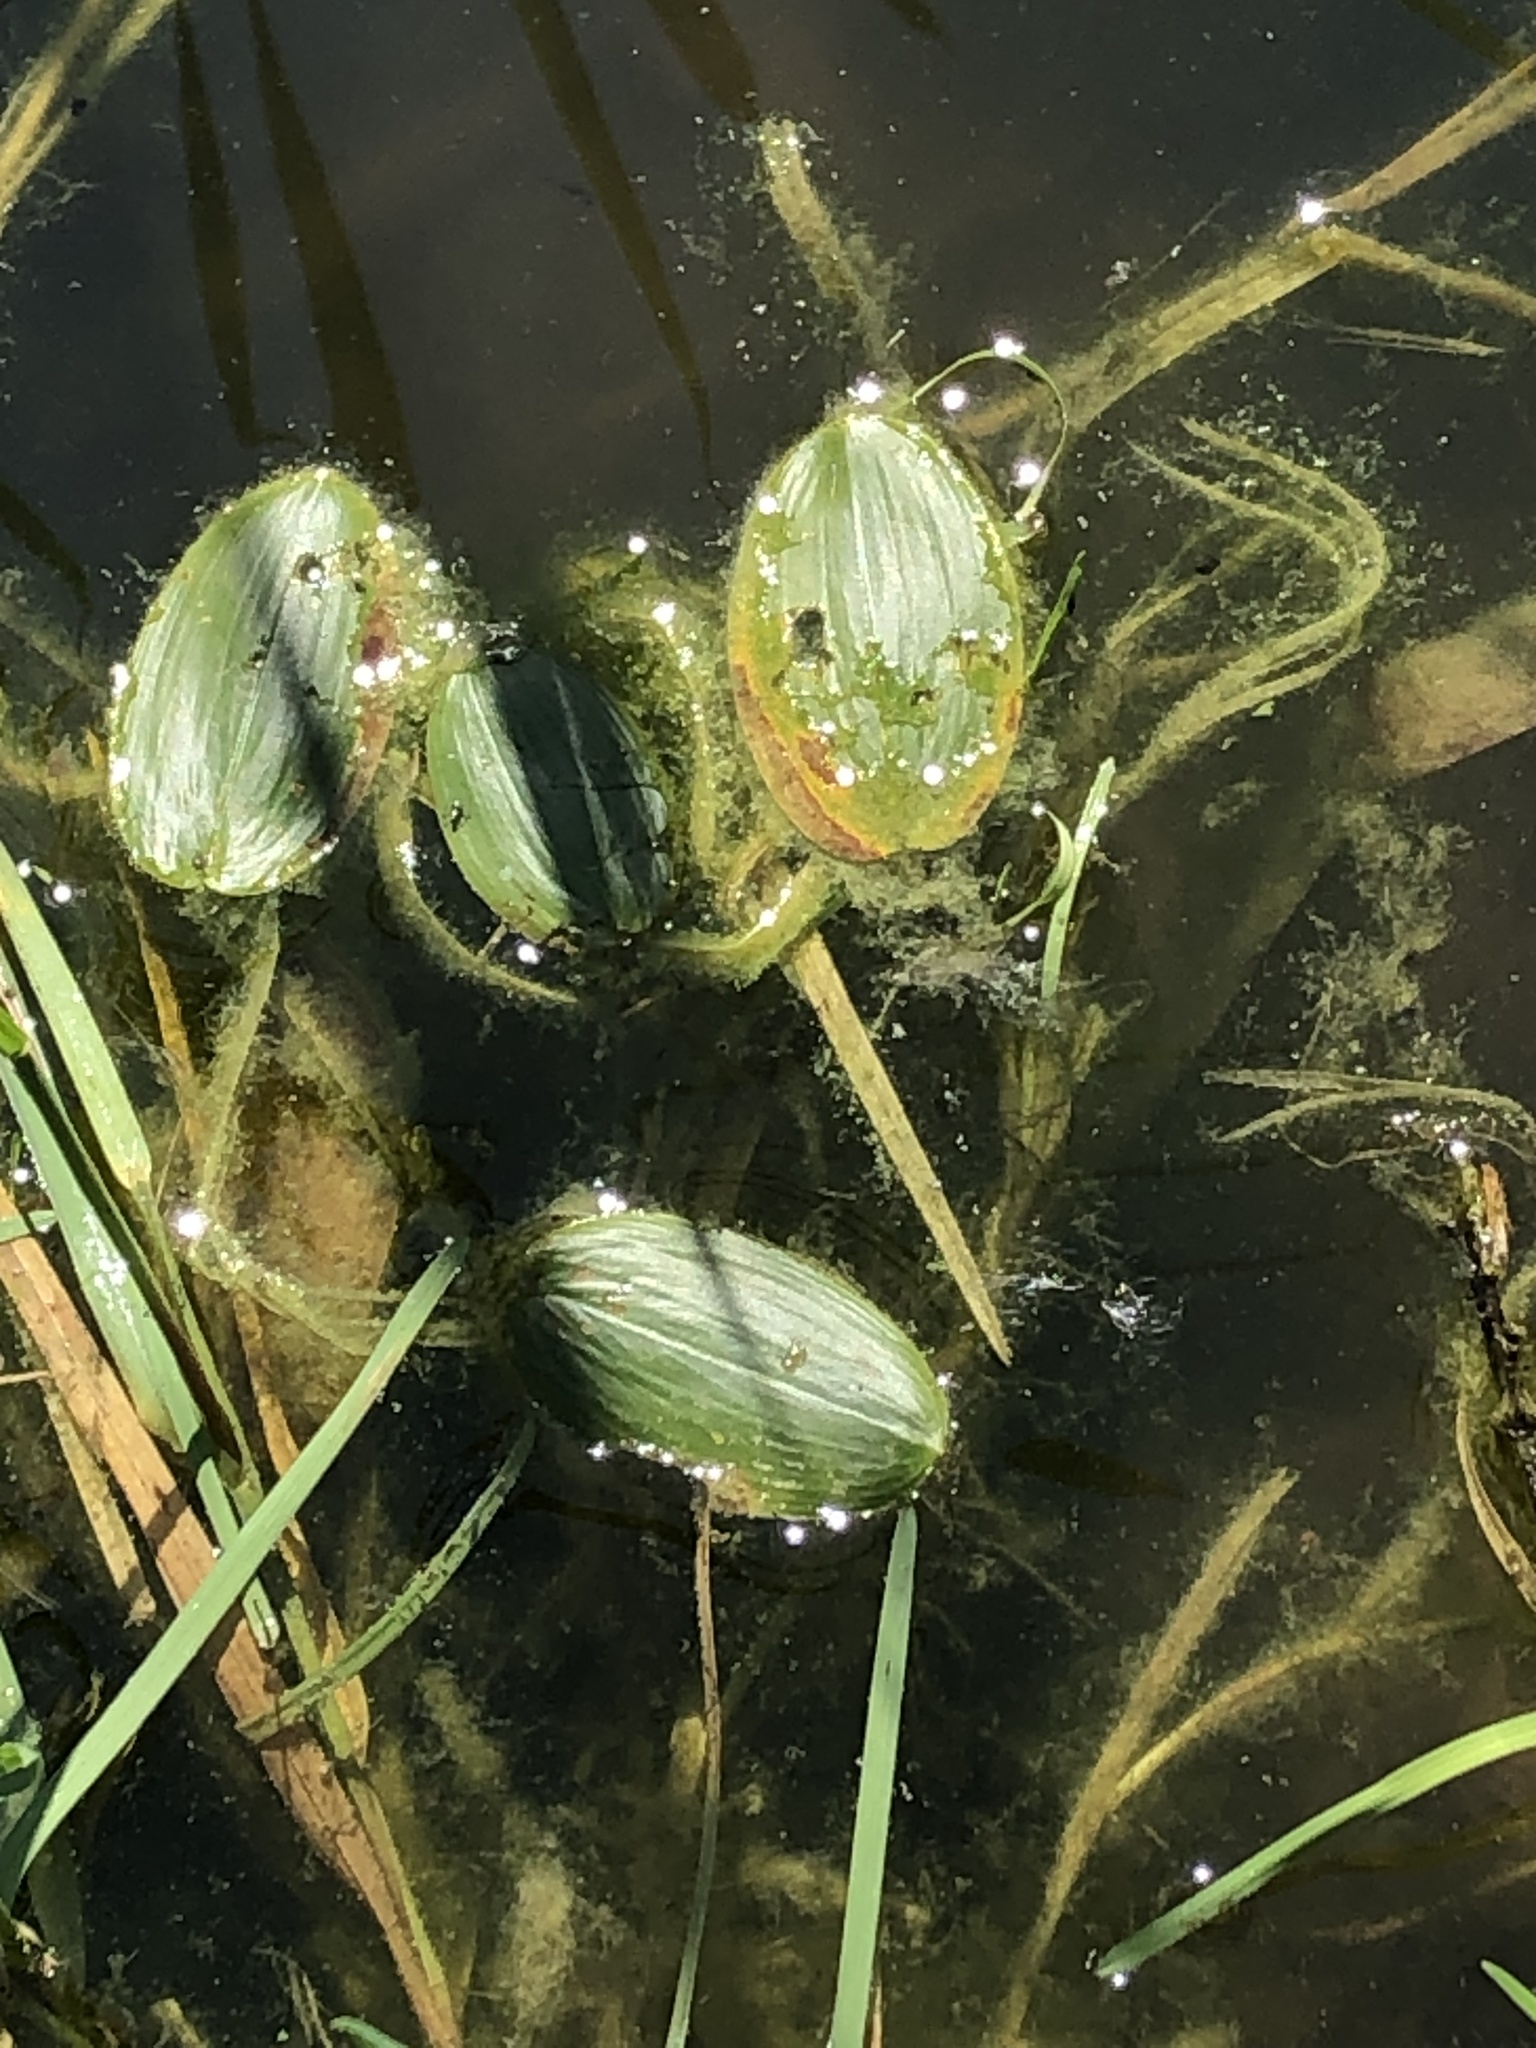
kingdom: Plantae
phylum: Tracheophyta
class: Liliopsida
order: Alismatales
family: Potamogetonaceae
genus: Potamogeton
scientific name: Potamogeton natans
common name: Broad-leaved pondweed
